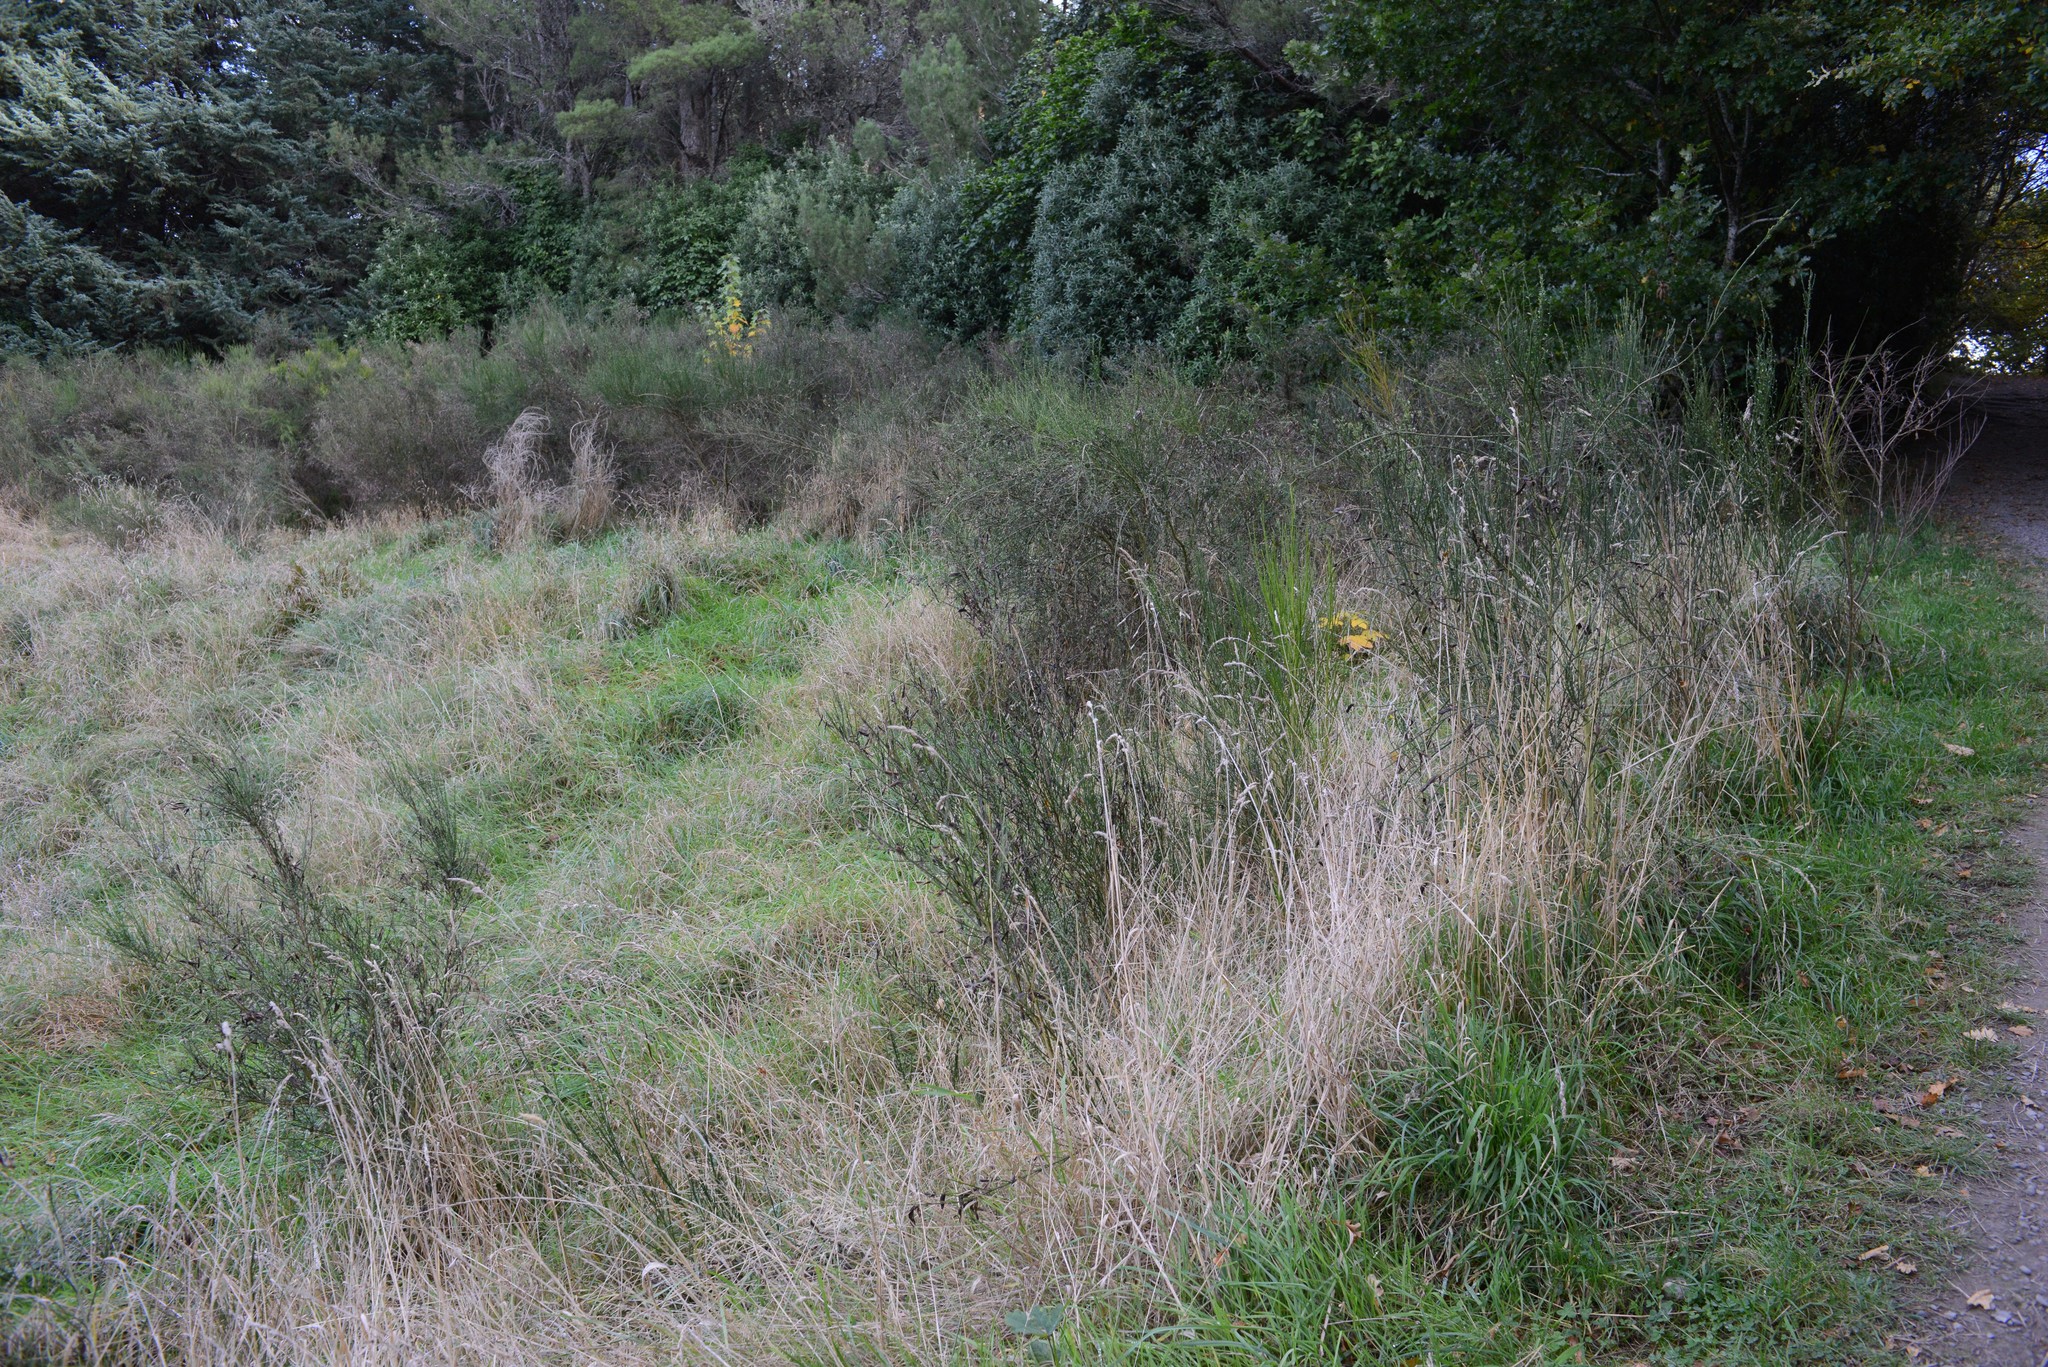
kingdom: Plantae
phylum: Tracheophyta
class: Magnoliopsida
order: Fabales
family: Fabaceae
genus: Cytisus
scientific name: Cytisus scoparius
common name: Scotch broom
